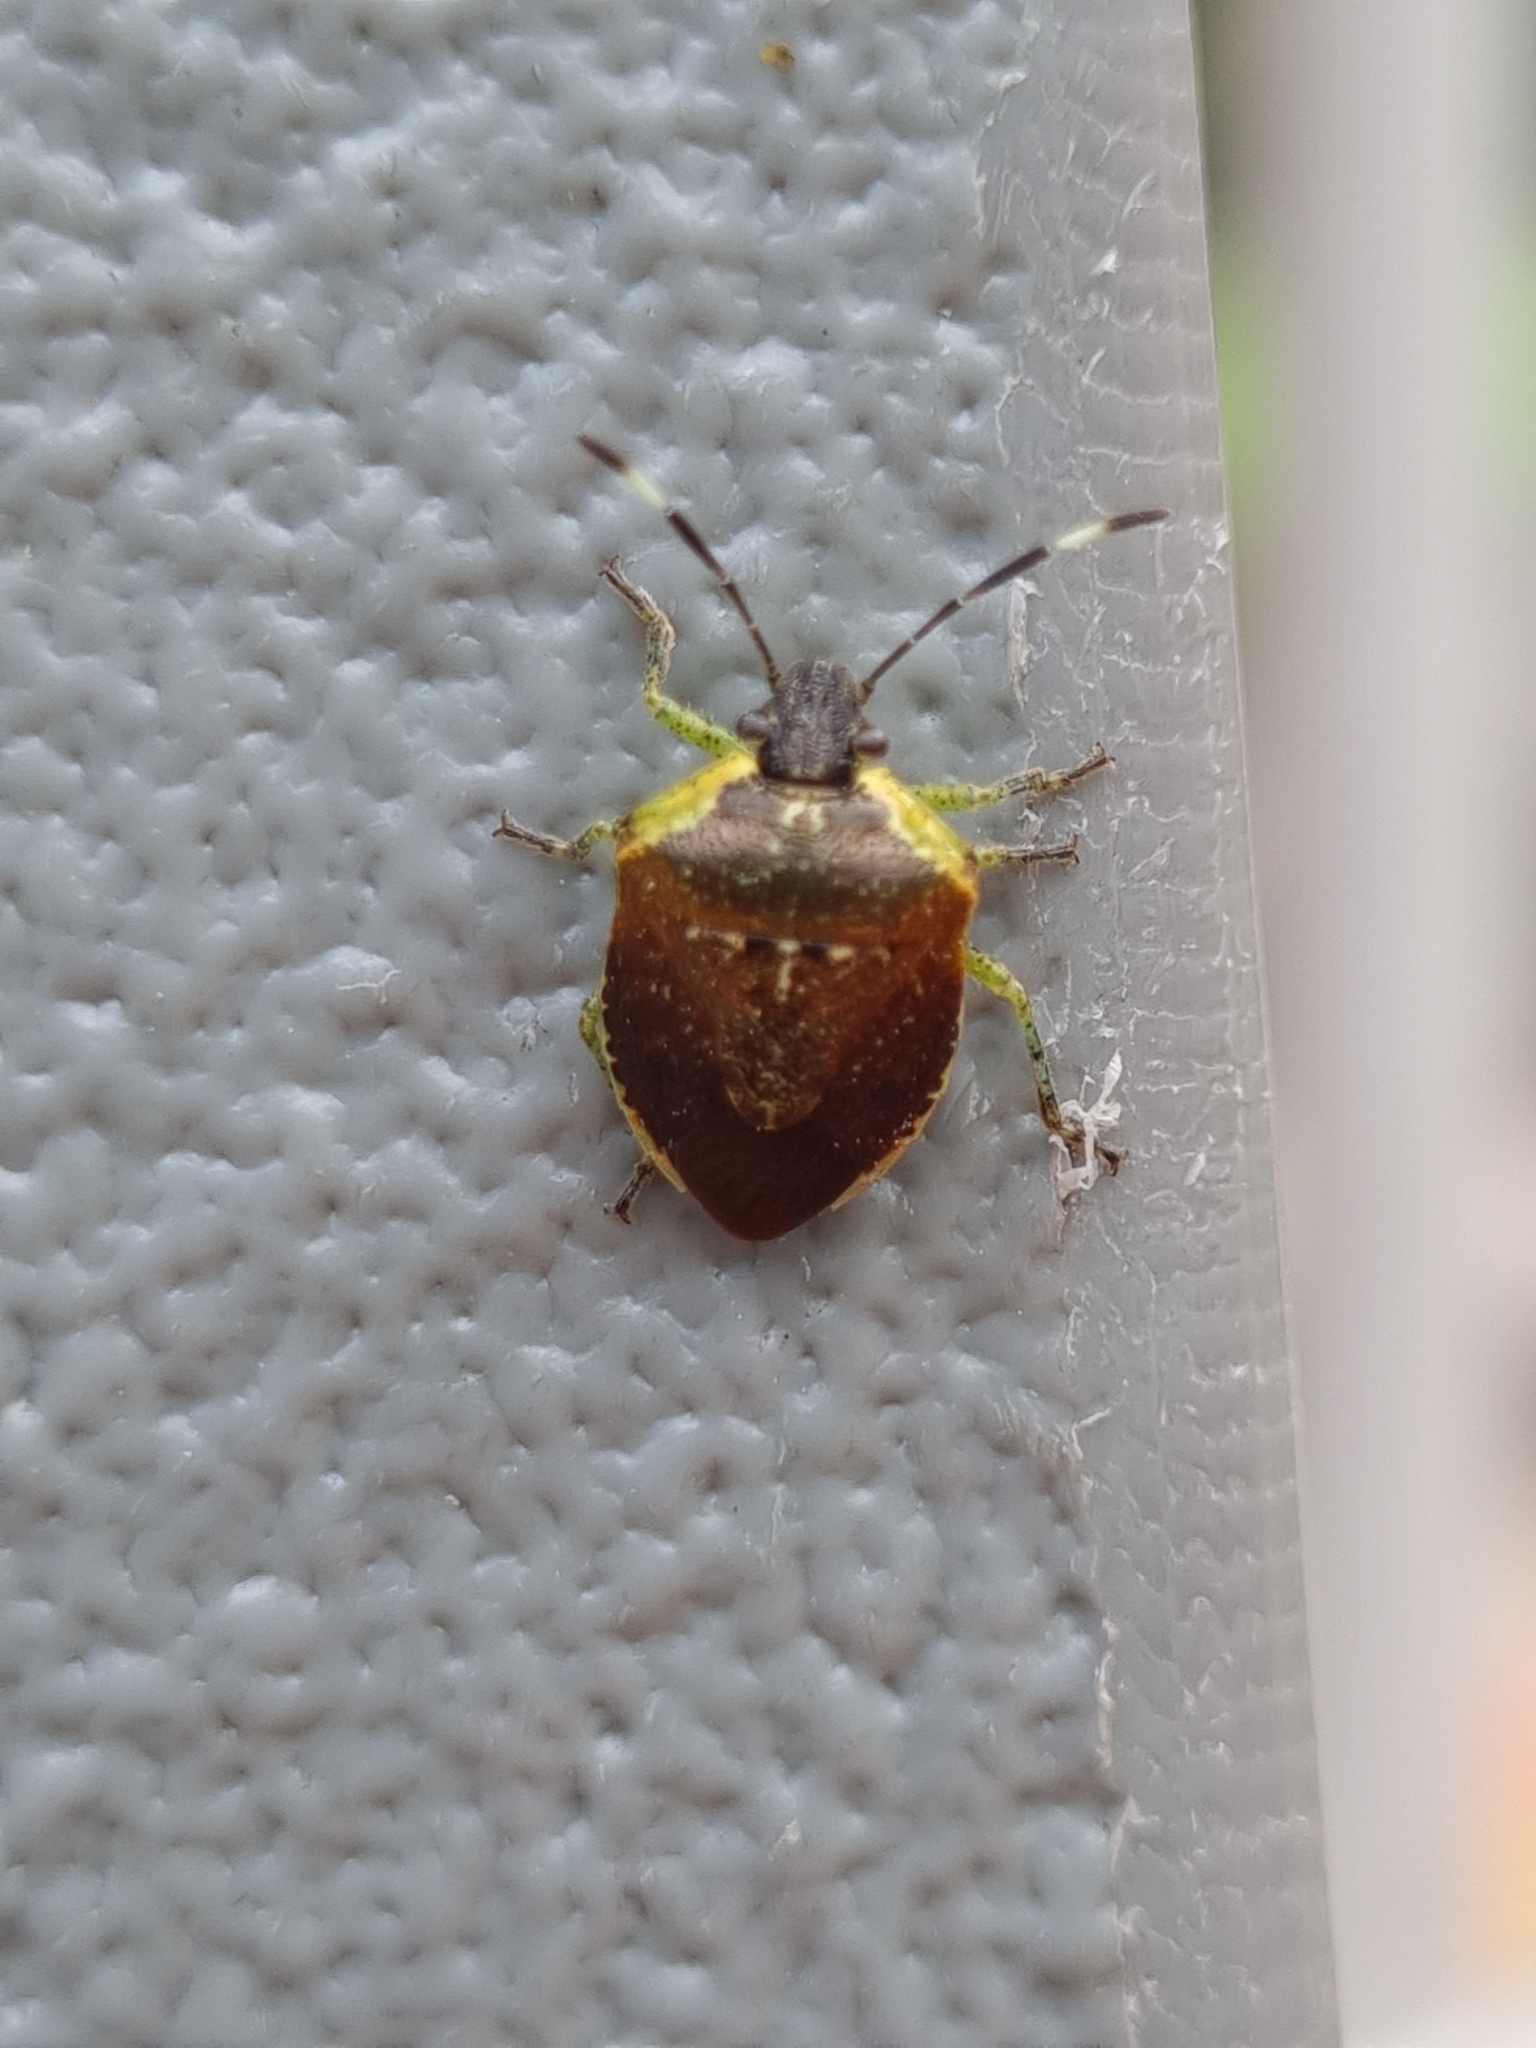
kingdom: Animalia
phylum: Arthropoda
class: Insecta
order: Hemiptera
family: Pentatomidae
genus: Monteithiella
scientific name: Monteithiella
